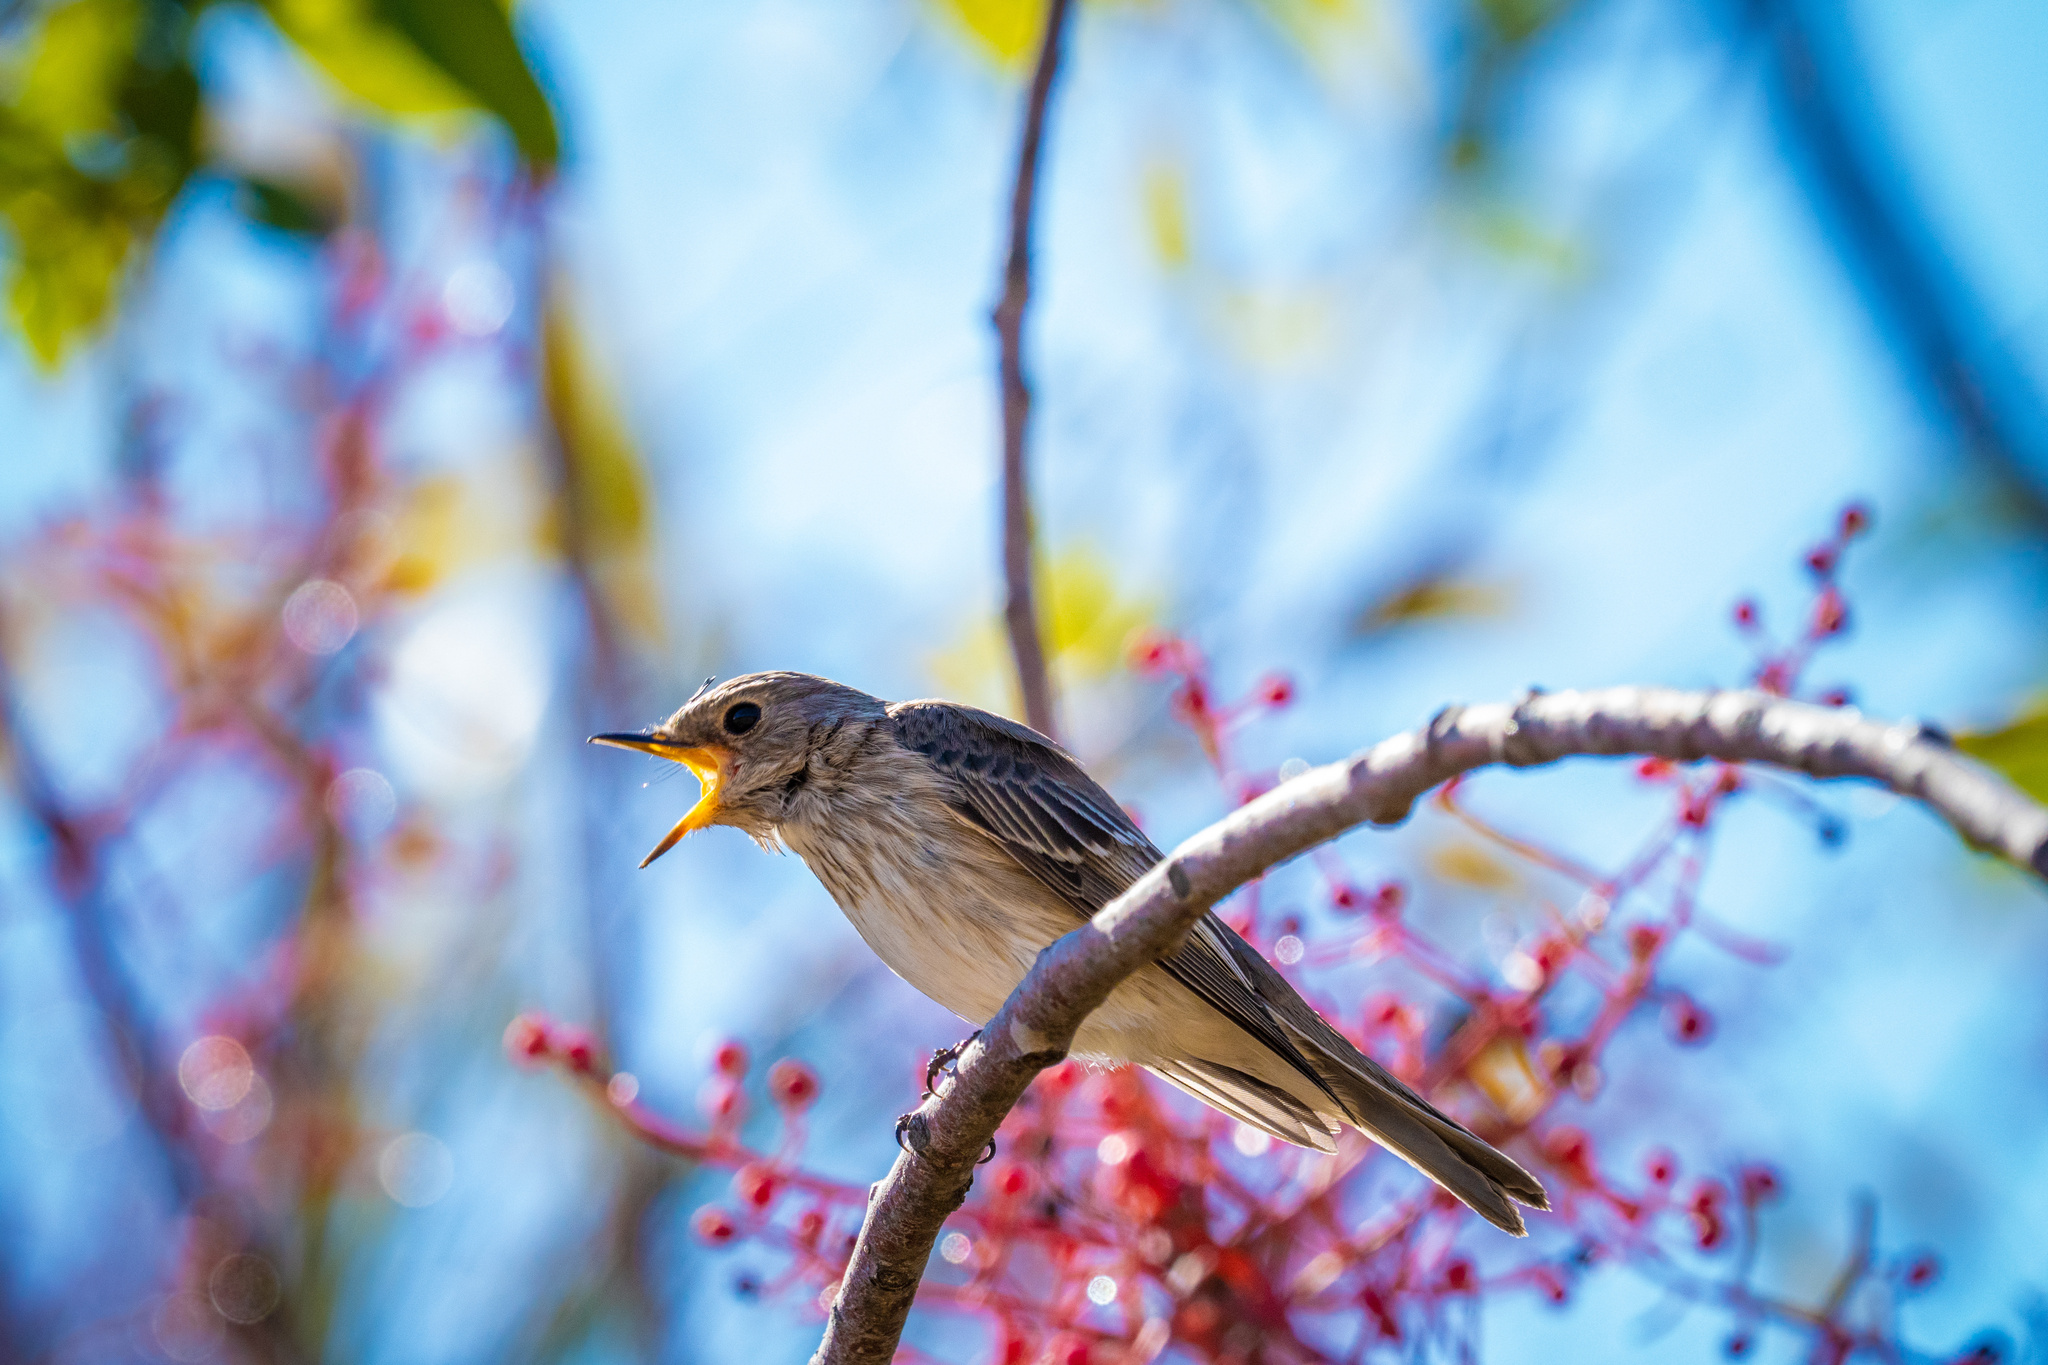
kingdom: Animalia
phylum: Chordata
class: Aves
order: Passeriformes
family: Muscicapidae
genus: Muscicapa
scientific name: Muscicapa striata
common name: Spotted flycatcher
